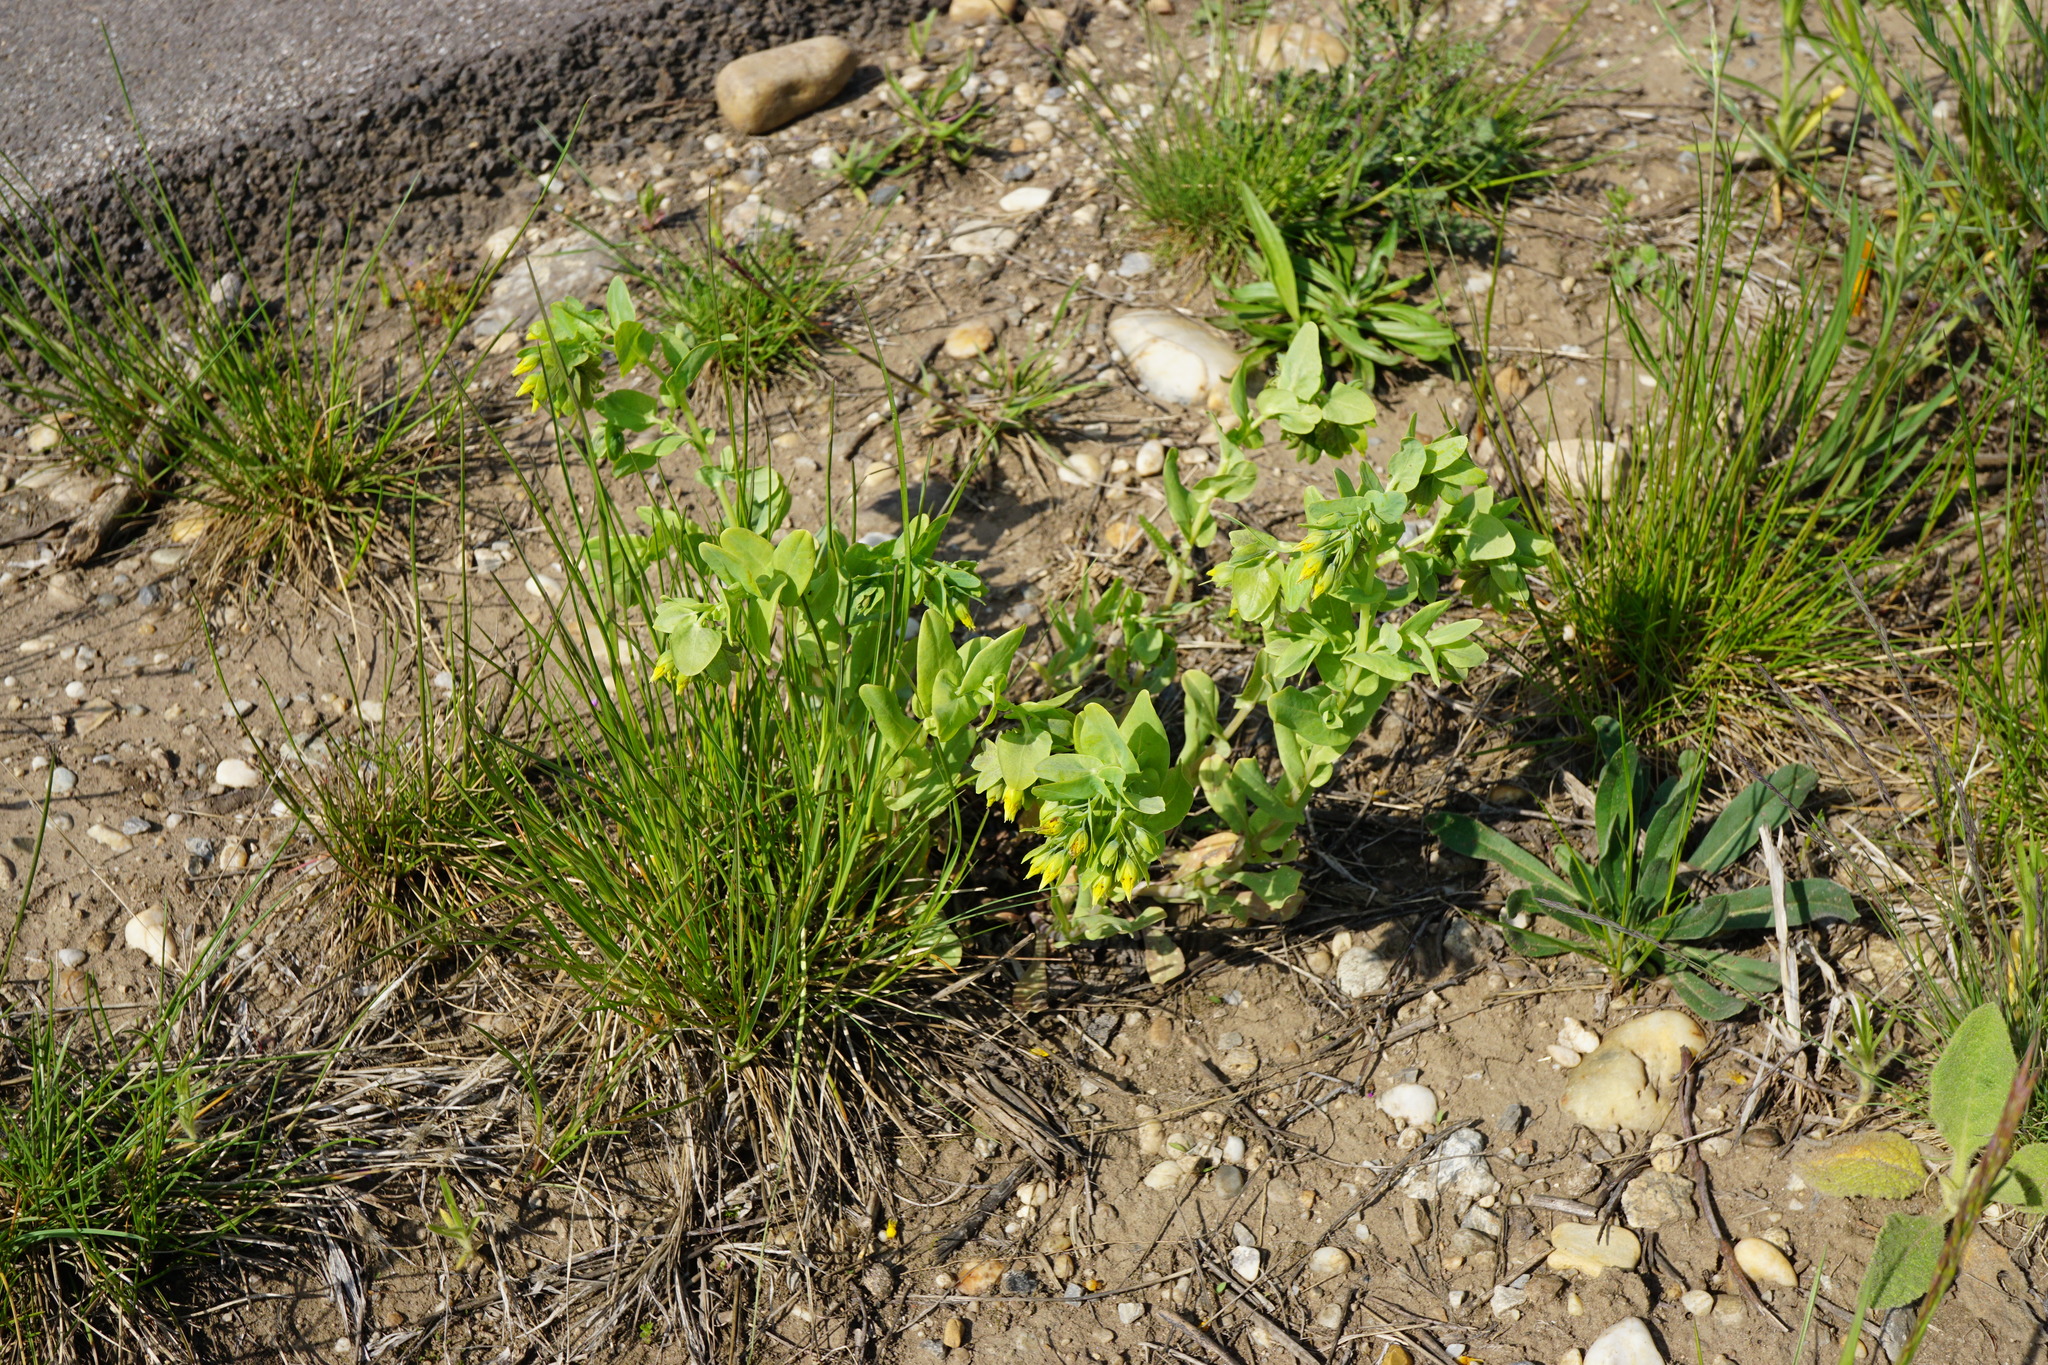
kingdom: Plantae
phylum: Tracheophyta
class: Magnoliopsida
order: Boraginales
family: Boraginaceae
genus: Cerinthe
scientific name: Cerinthe minor
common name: Lesser honeywort
